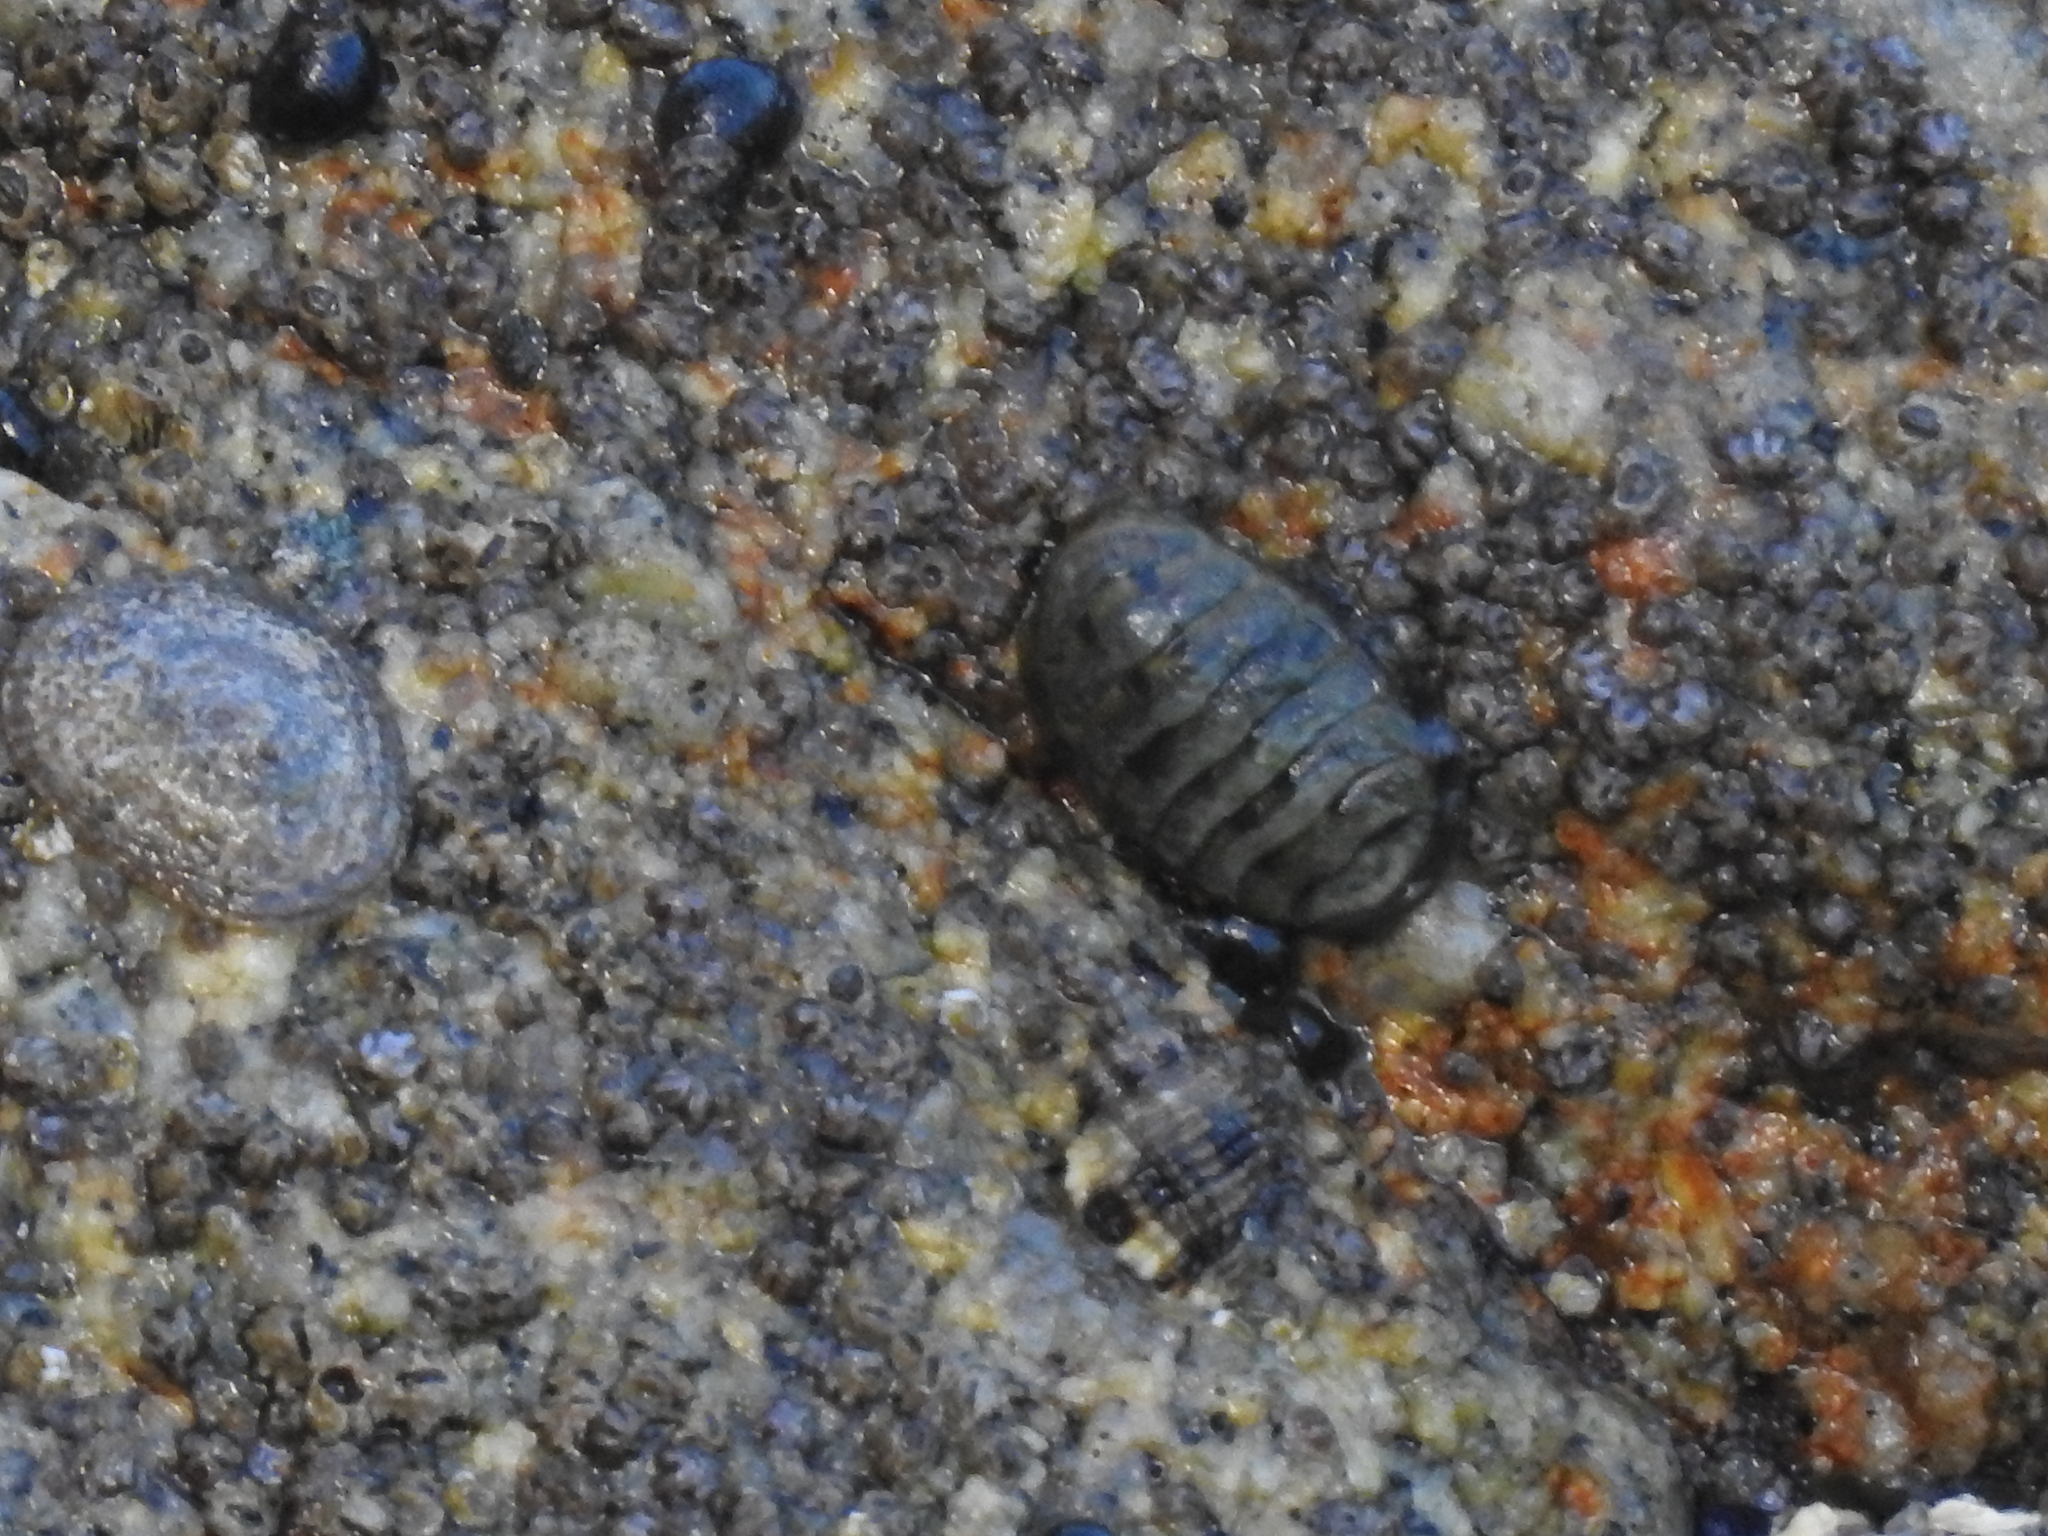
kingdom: Animalia
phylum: Mollusca
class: Polyplacophora
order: Chitonida
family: Tonicellidae
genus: Cyanoplax
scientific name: Cyanoplax hartwegii
